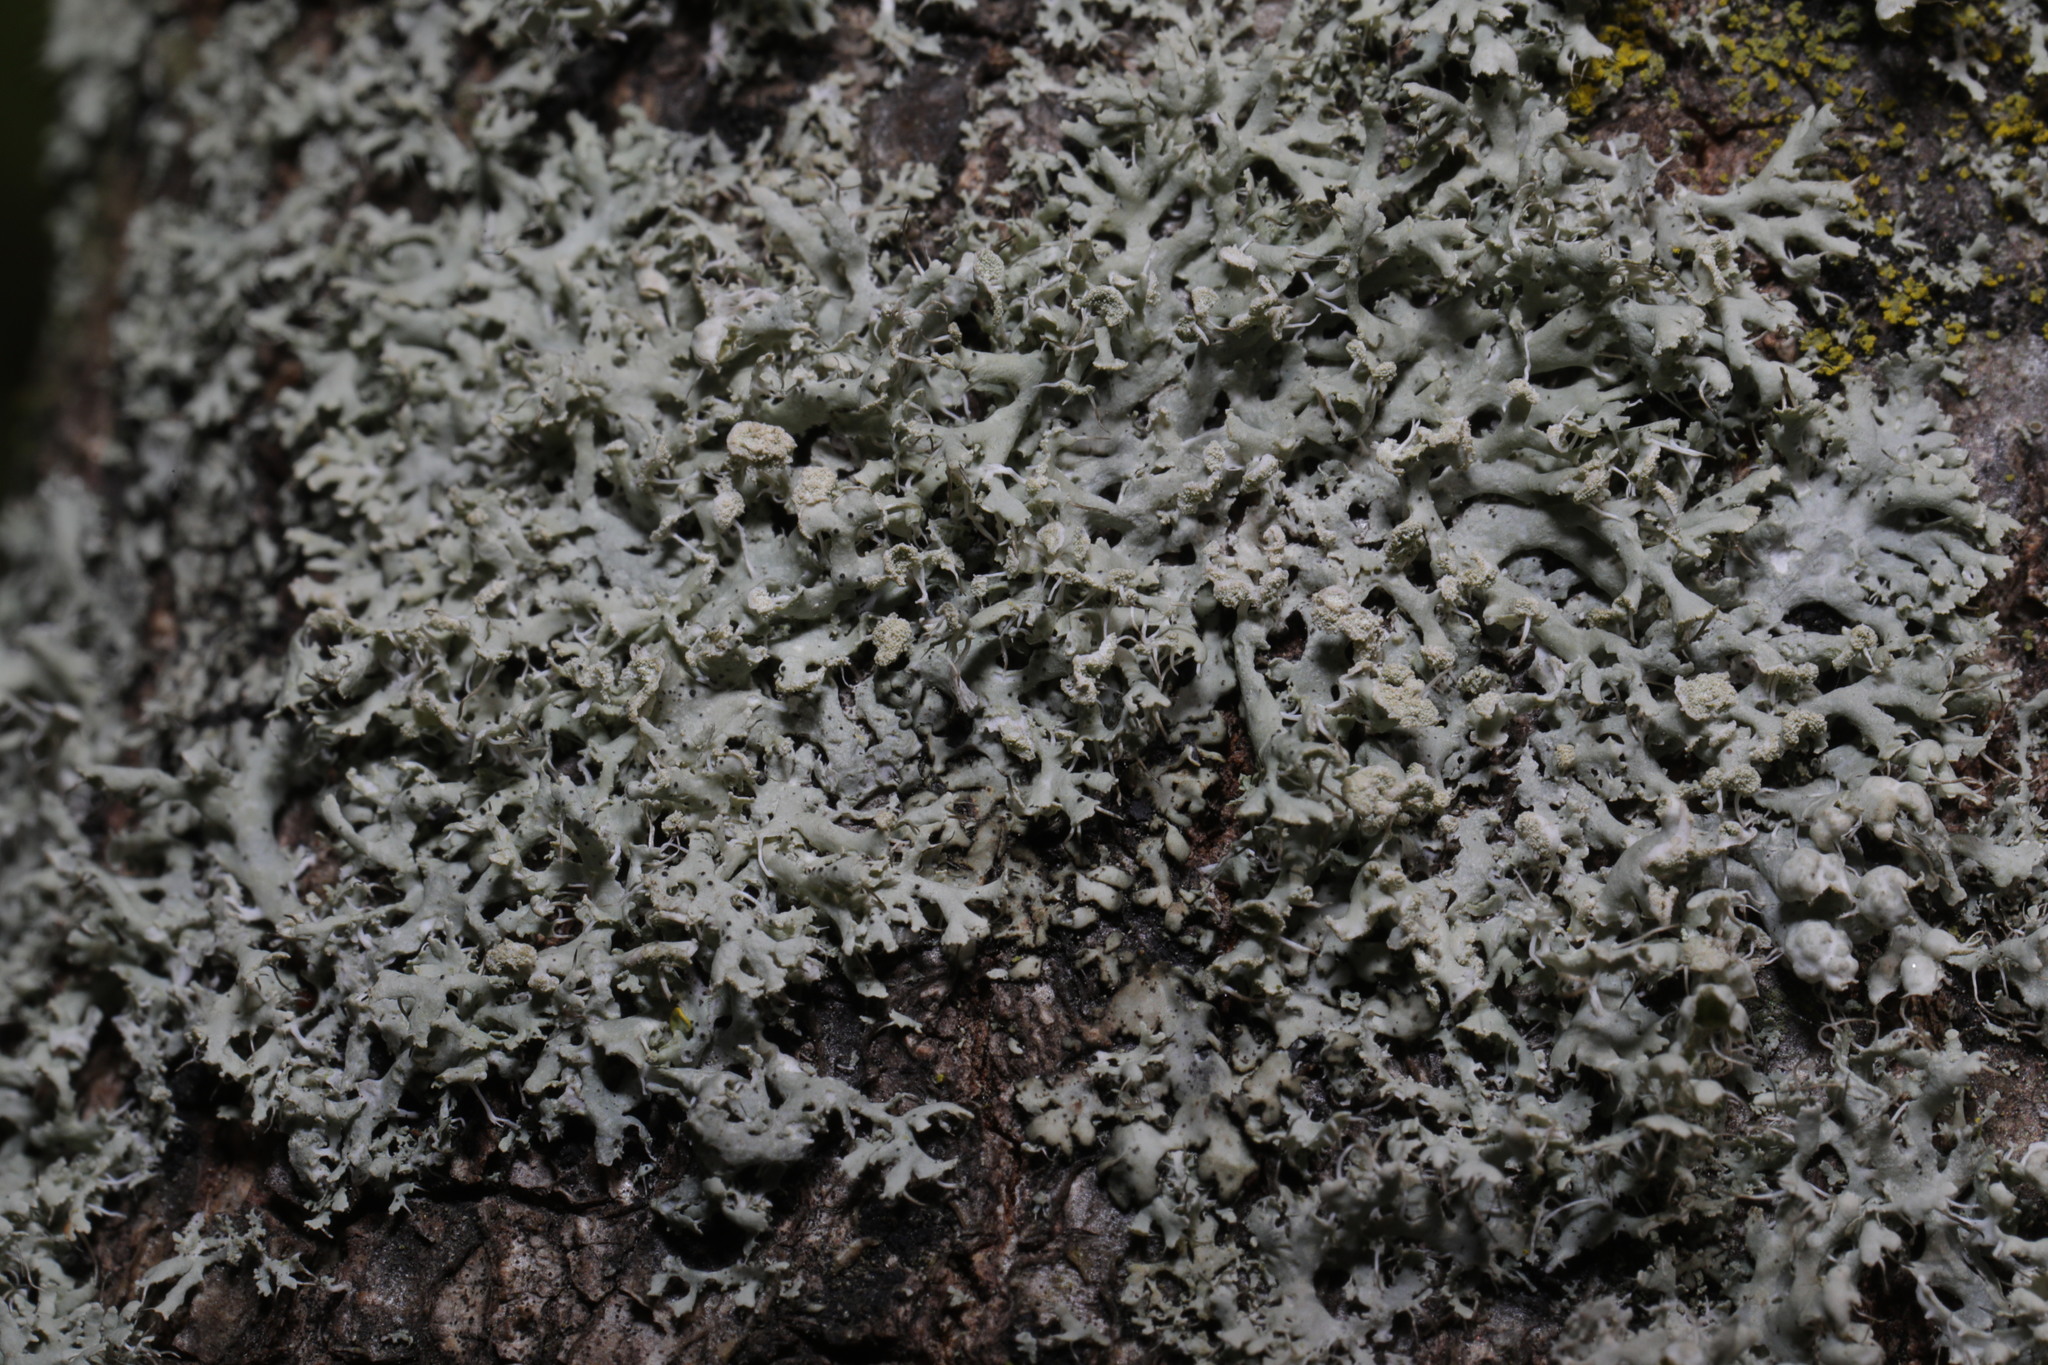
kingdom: Fungi
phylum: Ascomycota
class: Lecanoromycetes
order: Caliciales
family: Physciaceae
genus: Physcia
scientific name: Physcia tenella
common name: Fringed rosette lichen
